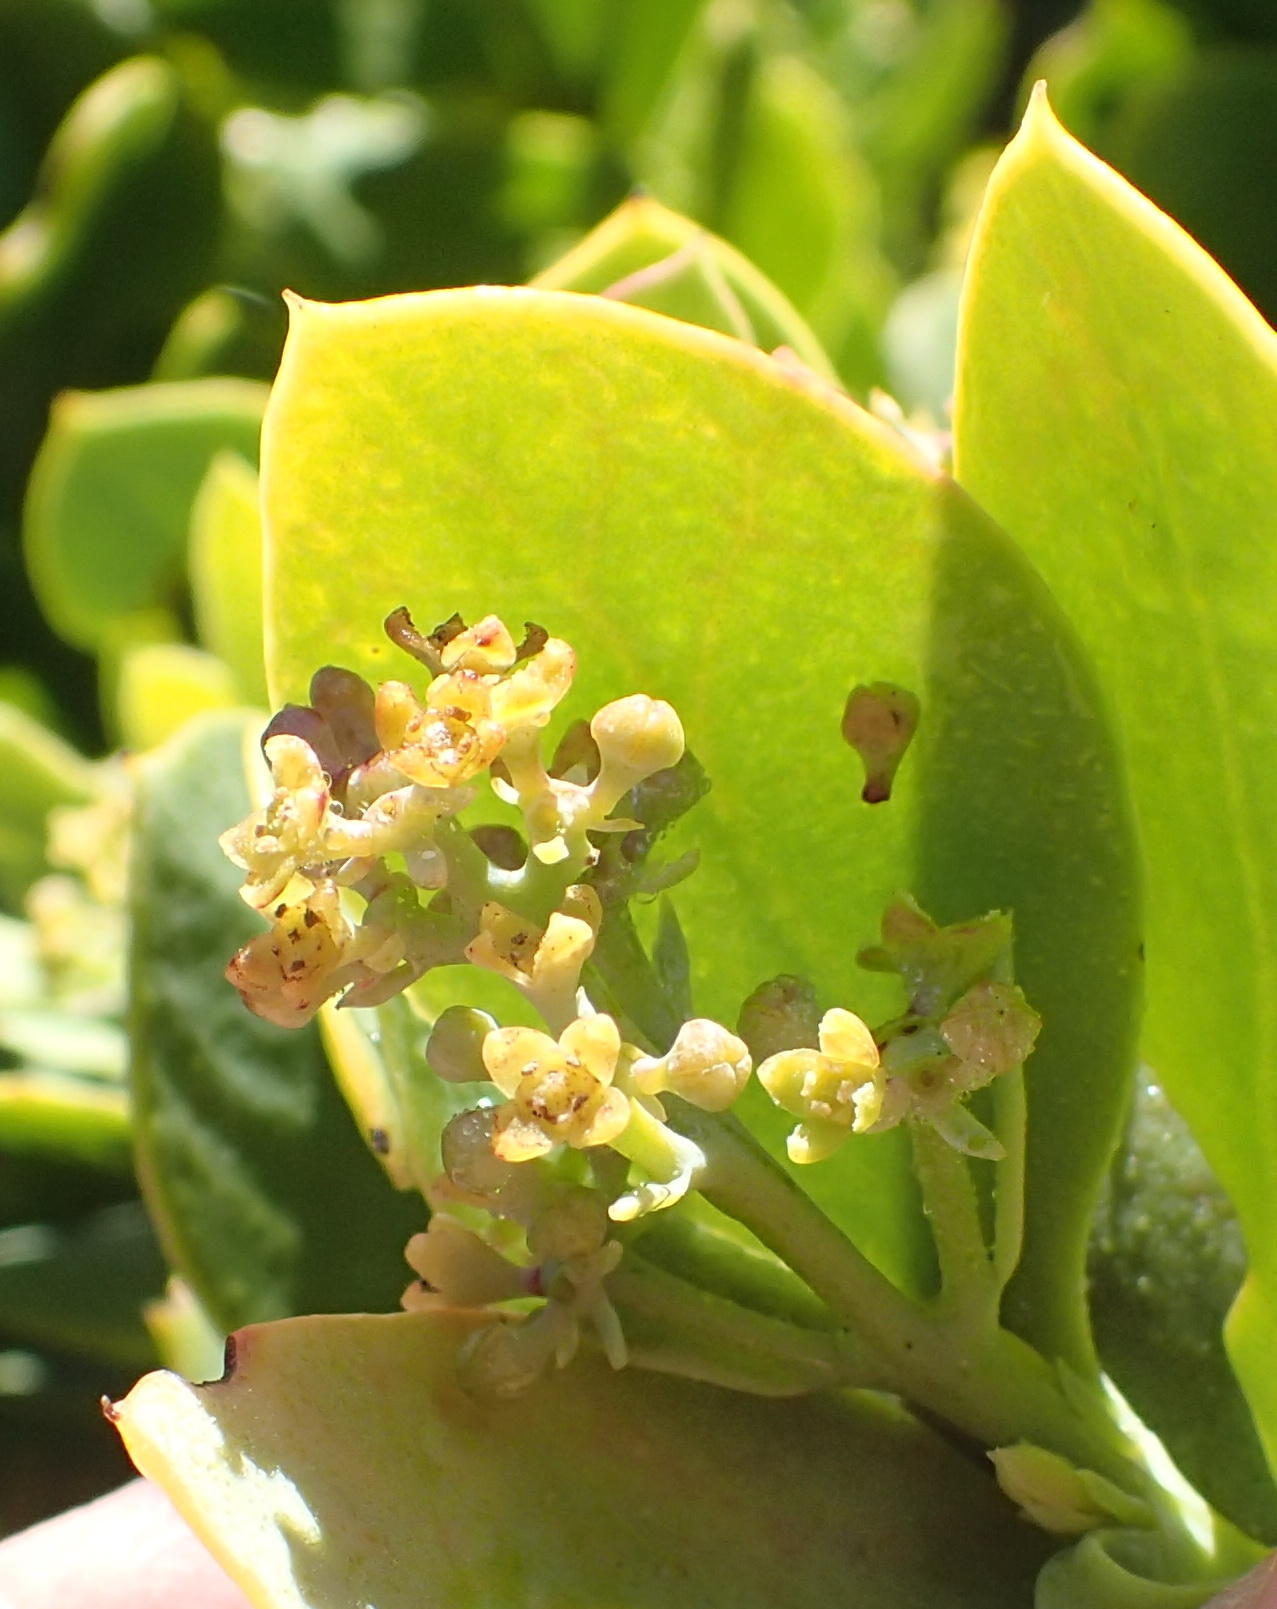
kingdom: Plantae
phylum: Tracheophyta
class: Magnoliopsida
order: Santalales
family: Santalaceae
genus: Osyris
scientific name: Osyris compressa
